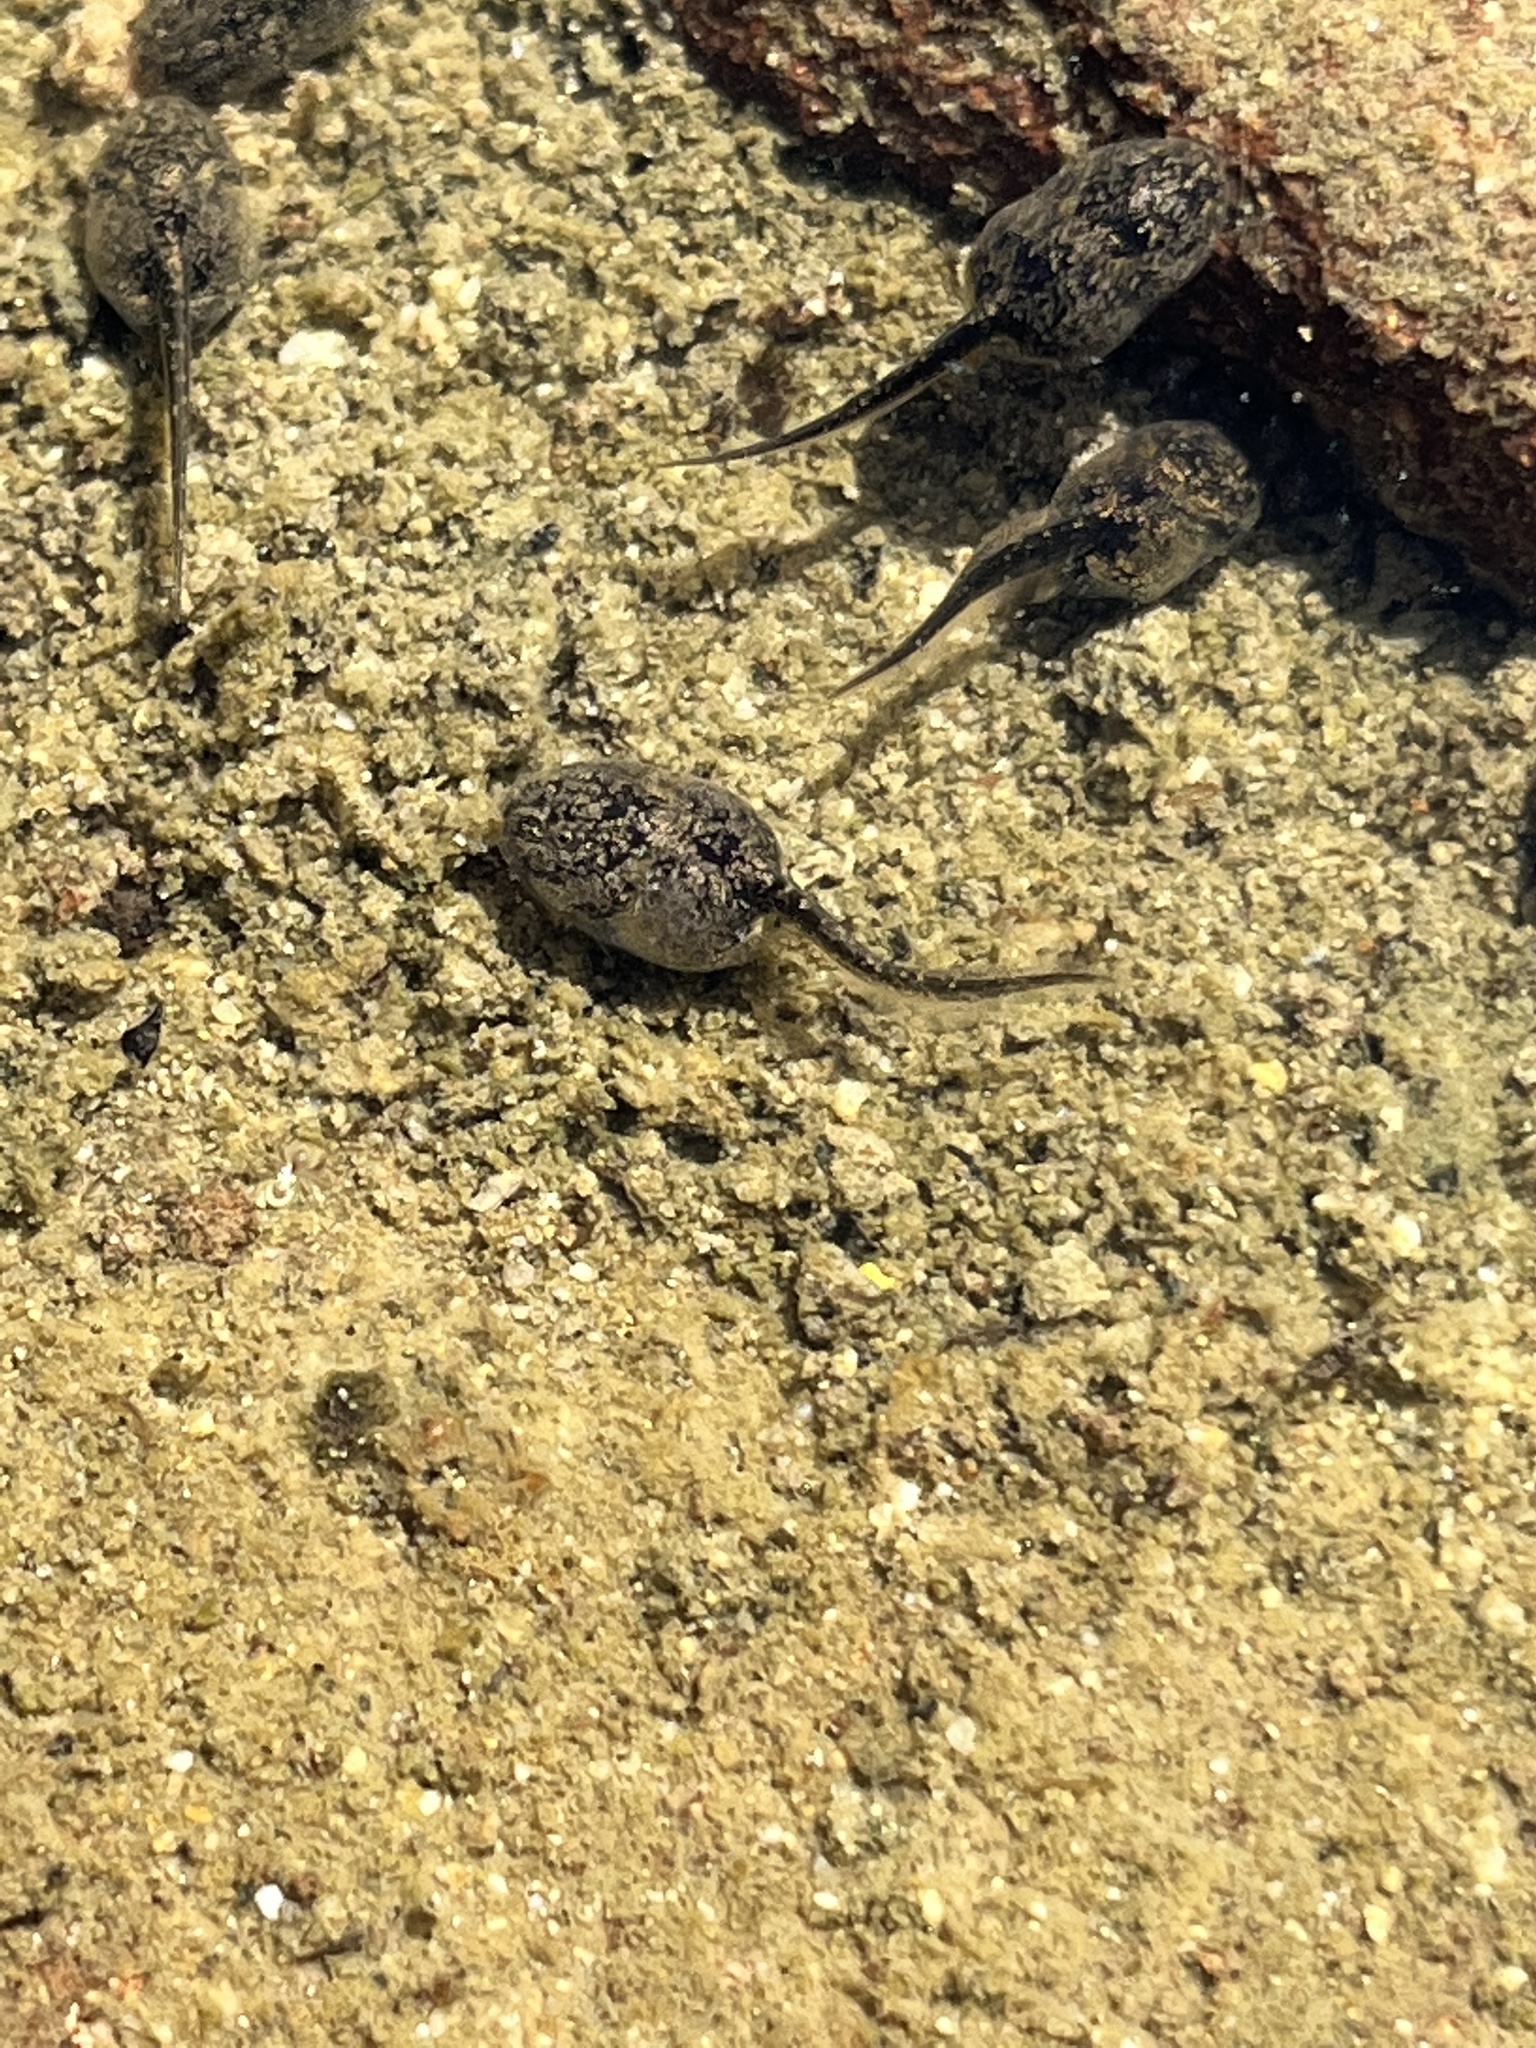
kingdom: Animalia
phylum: Chordata
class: Amphibia
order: Anura
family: Bufonidae
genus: Anaxyrus
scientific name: Anaxyrus boreas
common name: Western toad
